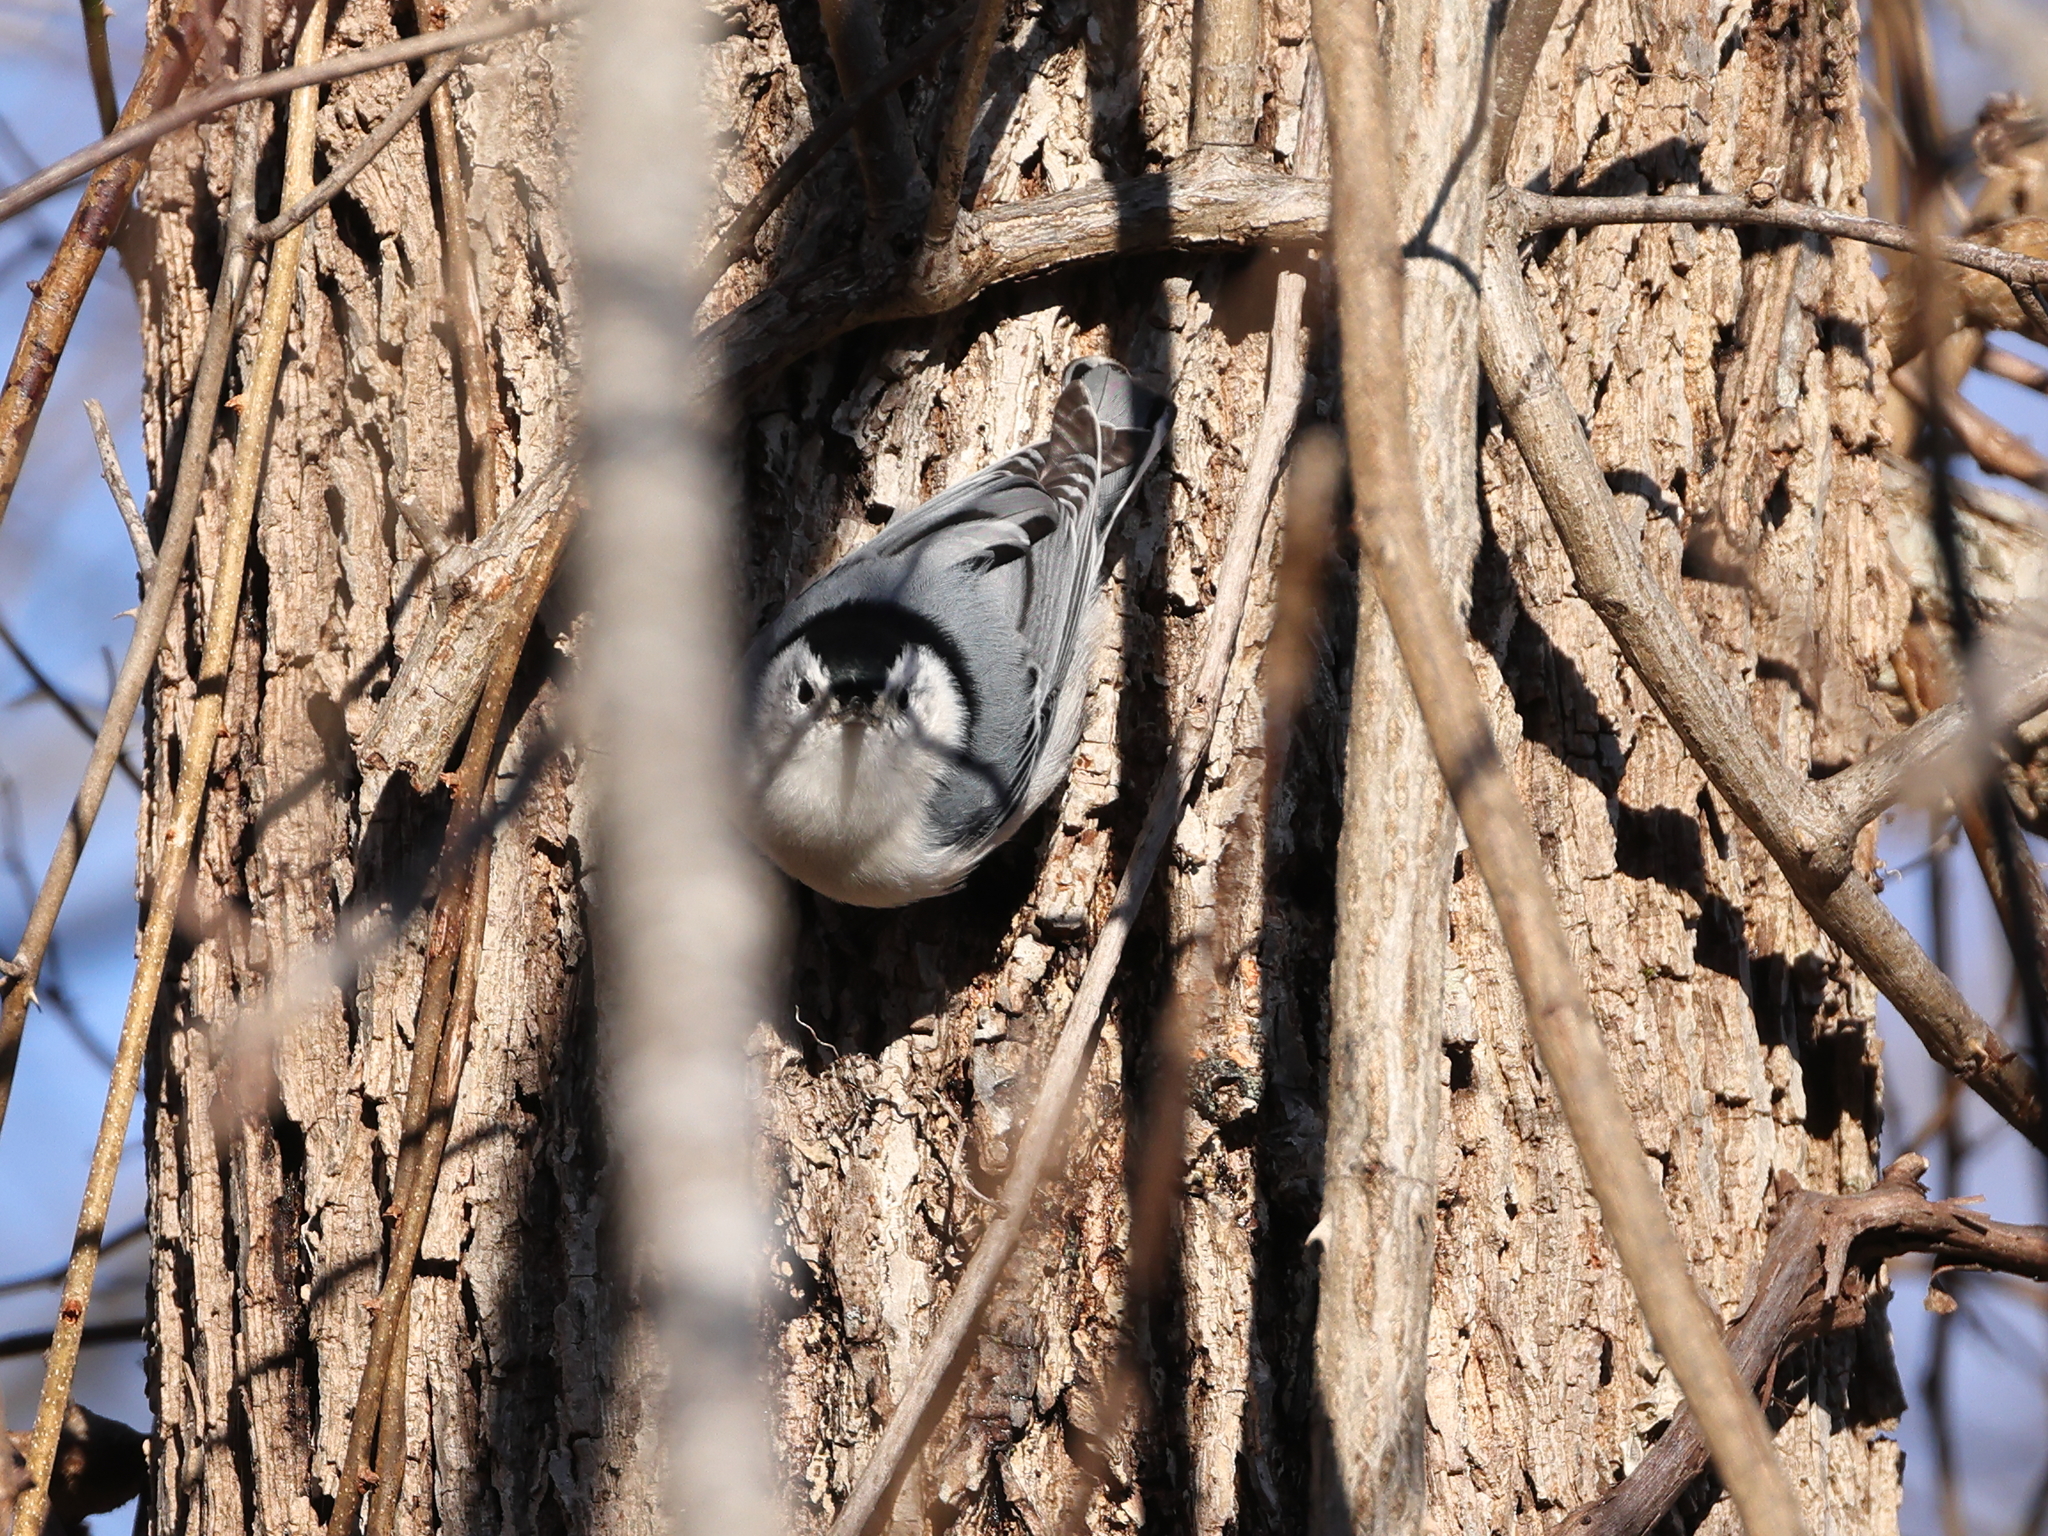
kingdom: Animalia
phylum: Chordata
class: Aves
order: Passeriformes
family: Sittidae
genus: Sitta
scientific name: Sitta carolinensis
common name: White-breasted nuthatch
